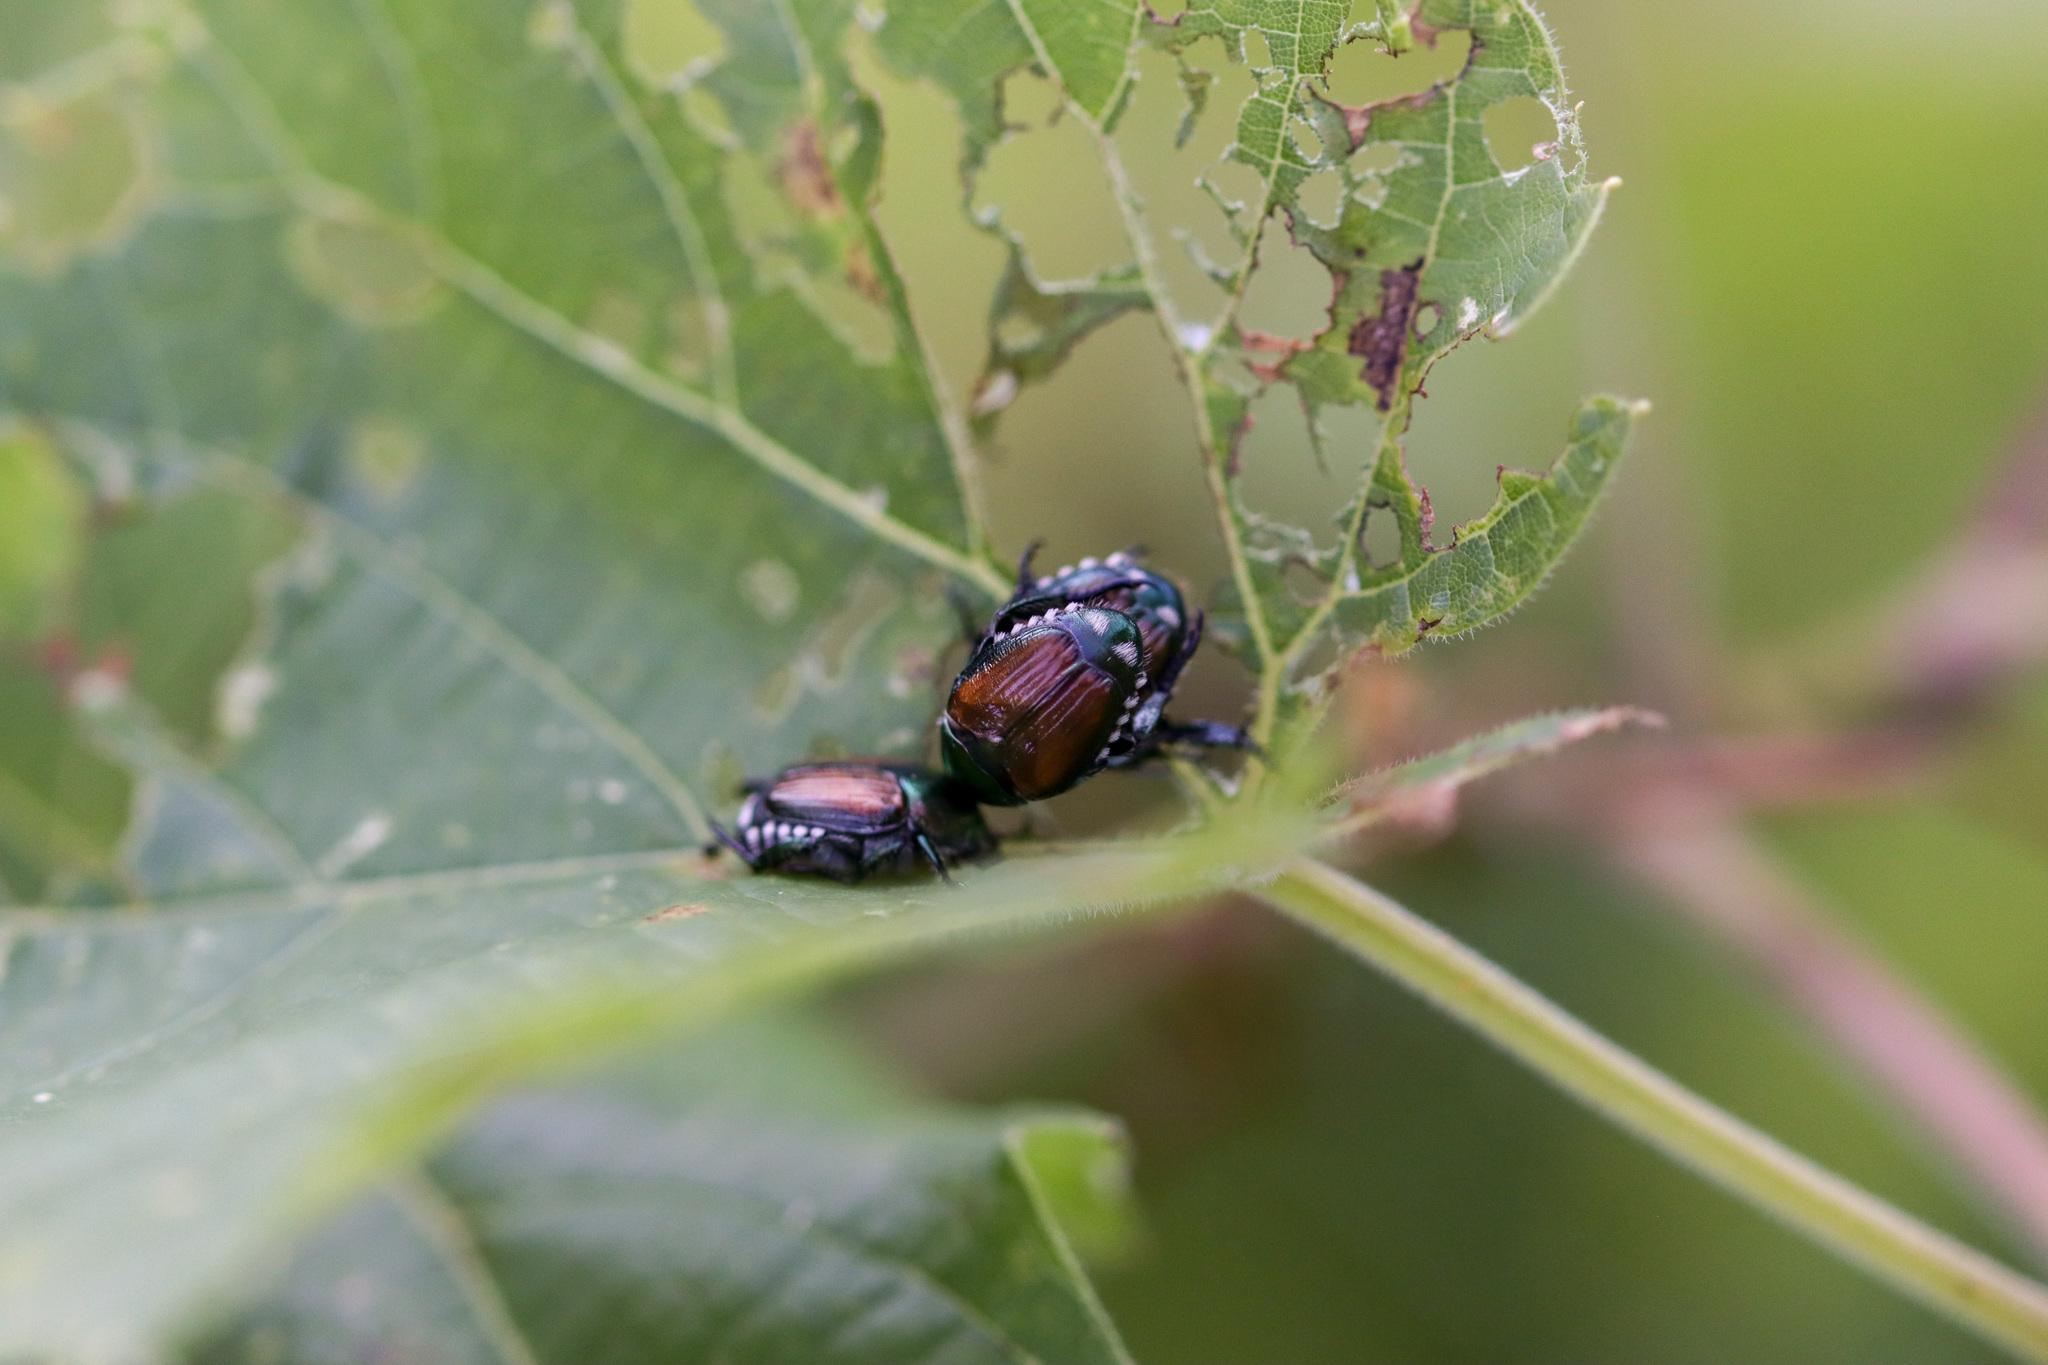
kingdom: Animalia
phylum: Arthropoda
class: Insecta
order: Coleoptera
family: Scarabaeidae
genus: Popillia
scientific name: Popillia japonica
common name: Japanese beetle
